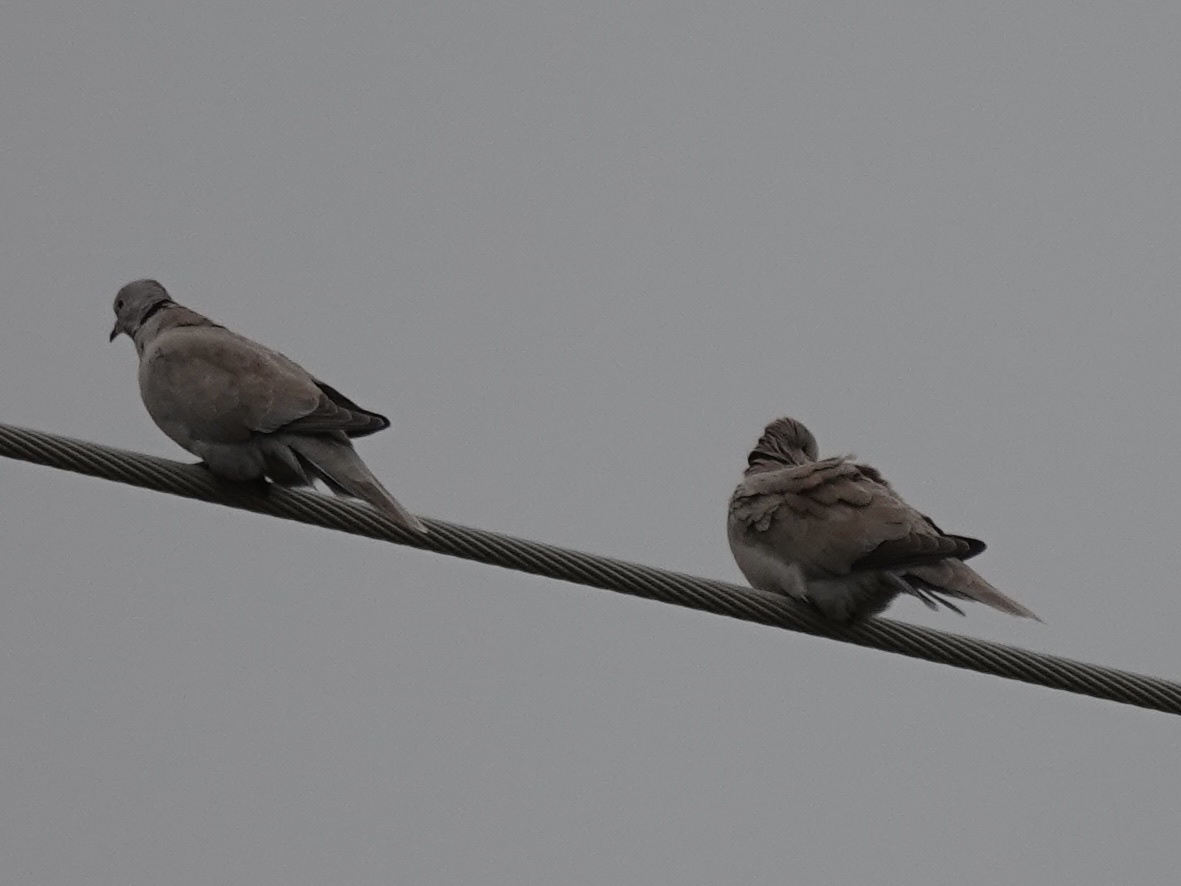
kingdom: Animalia
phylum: Chordata
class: Aves
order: Columbiformes
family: Columbidae
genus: Streptopelia
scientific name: Streptopelia decaocto
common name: Eurasian collared dove
